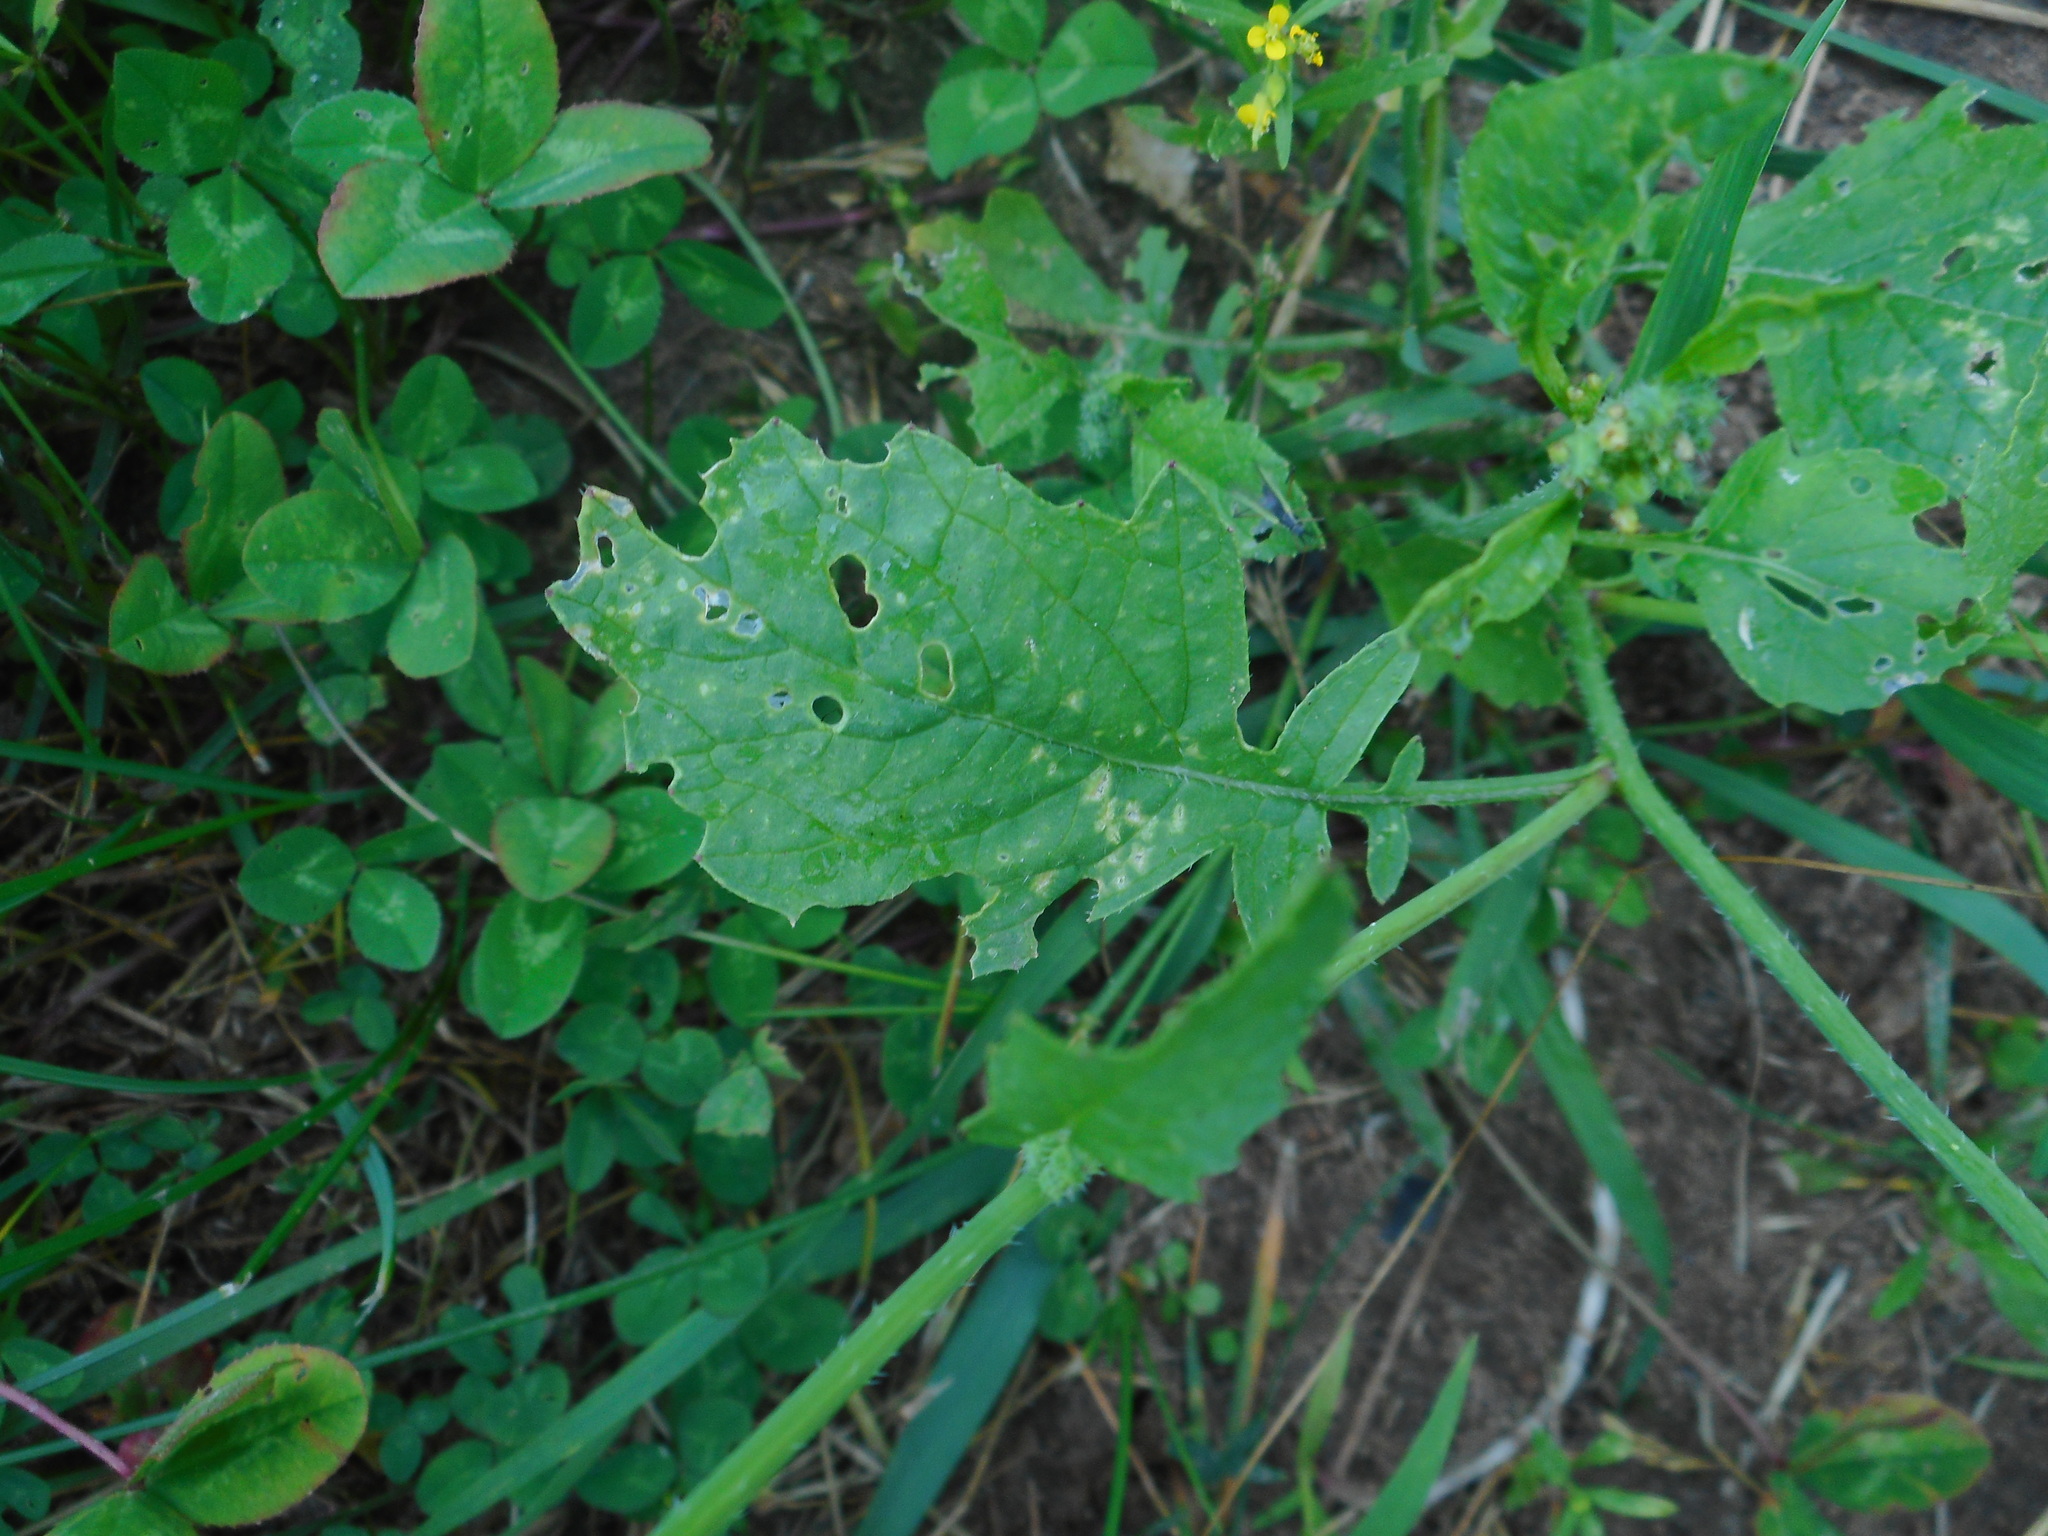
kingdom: Plantae
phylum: Tracheophyta
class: Magnoliopsida
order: Brassicales
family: Brassicaceae
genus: Raphanus
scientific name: Raphanus raphanistrum
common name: Wild radish
